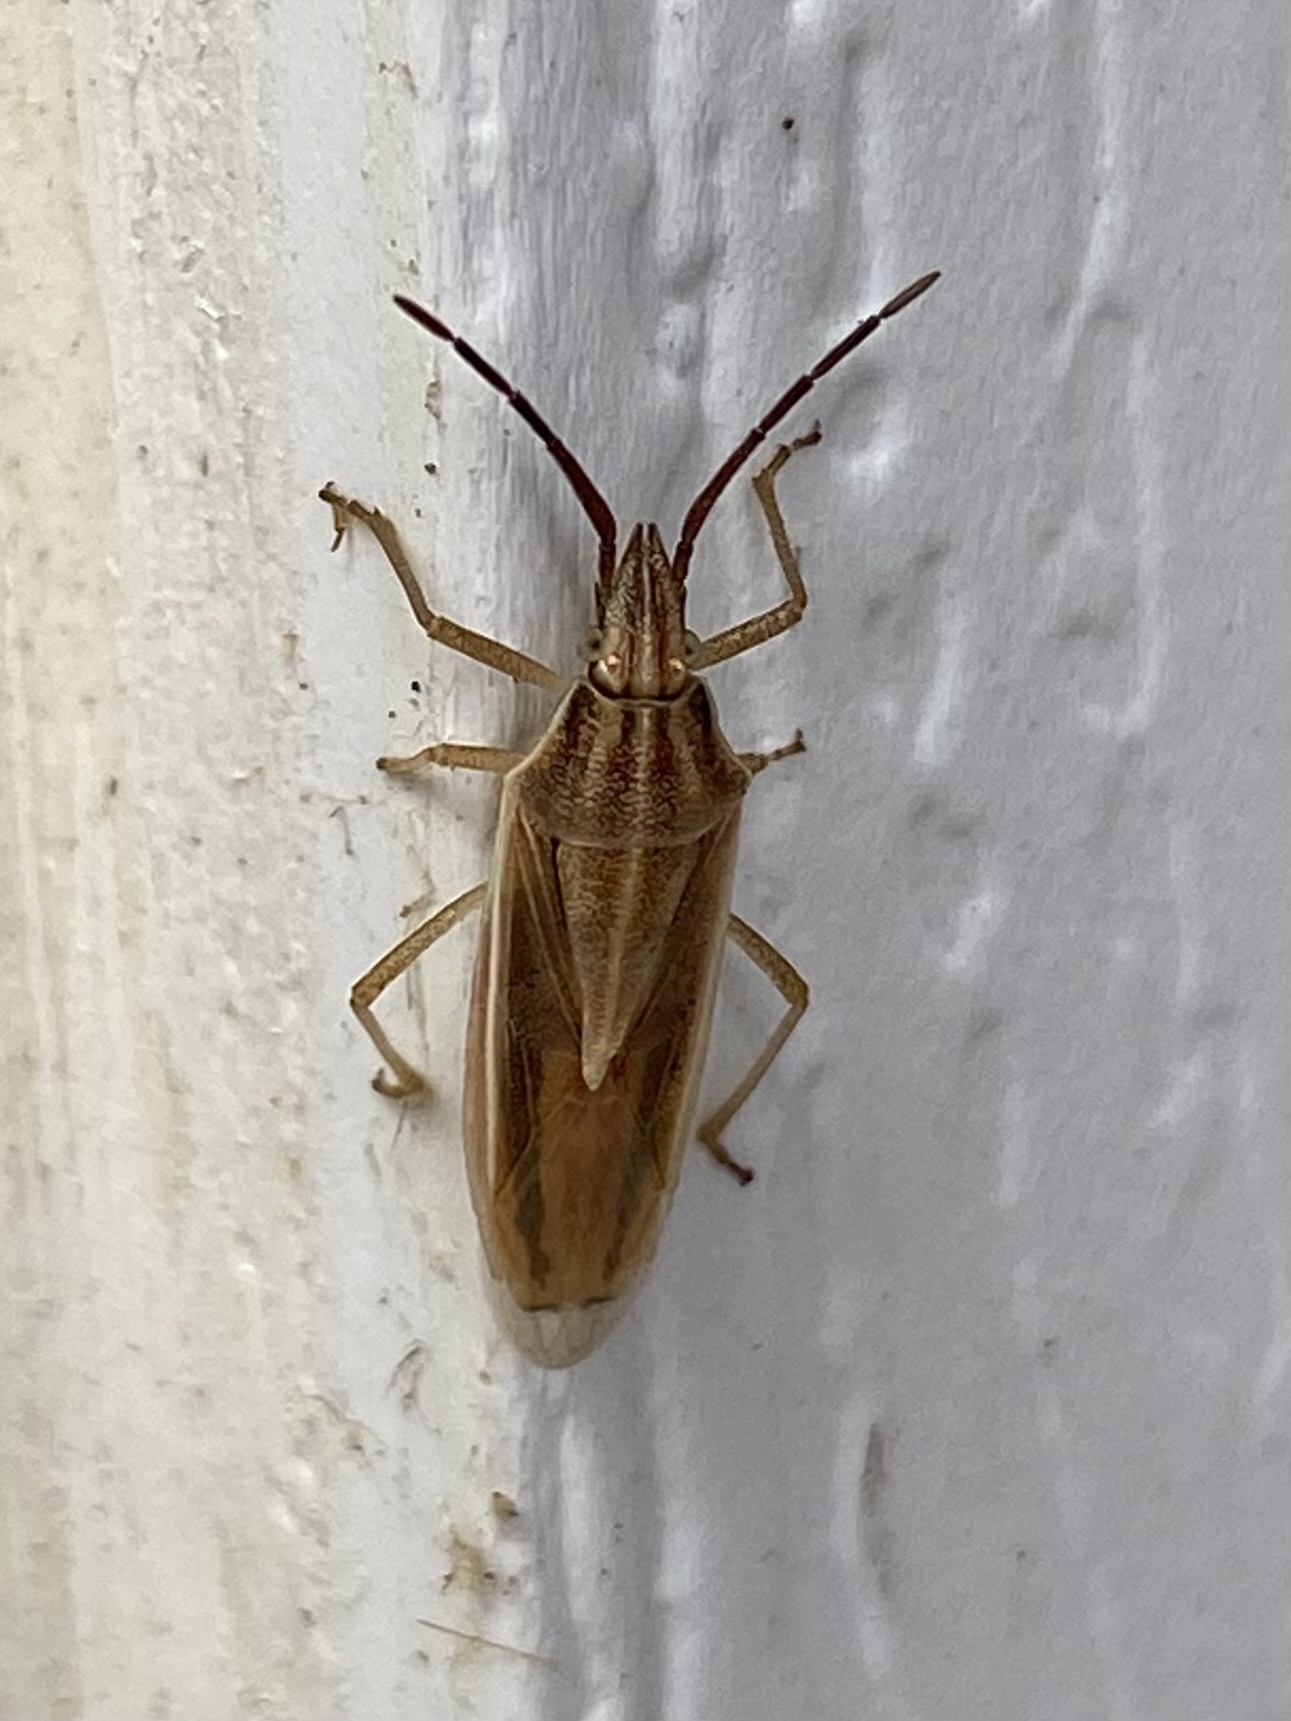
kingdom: Animalia
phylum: Arthropoda
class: Insecta
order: Hemiptera
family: Pentatomidae
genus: Mecidea
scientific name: Mecidea
